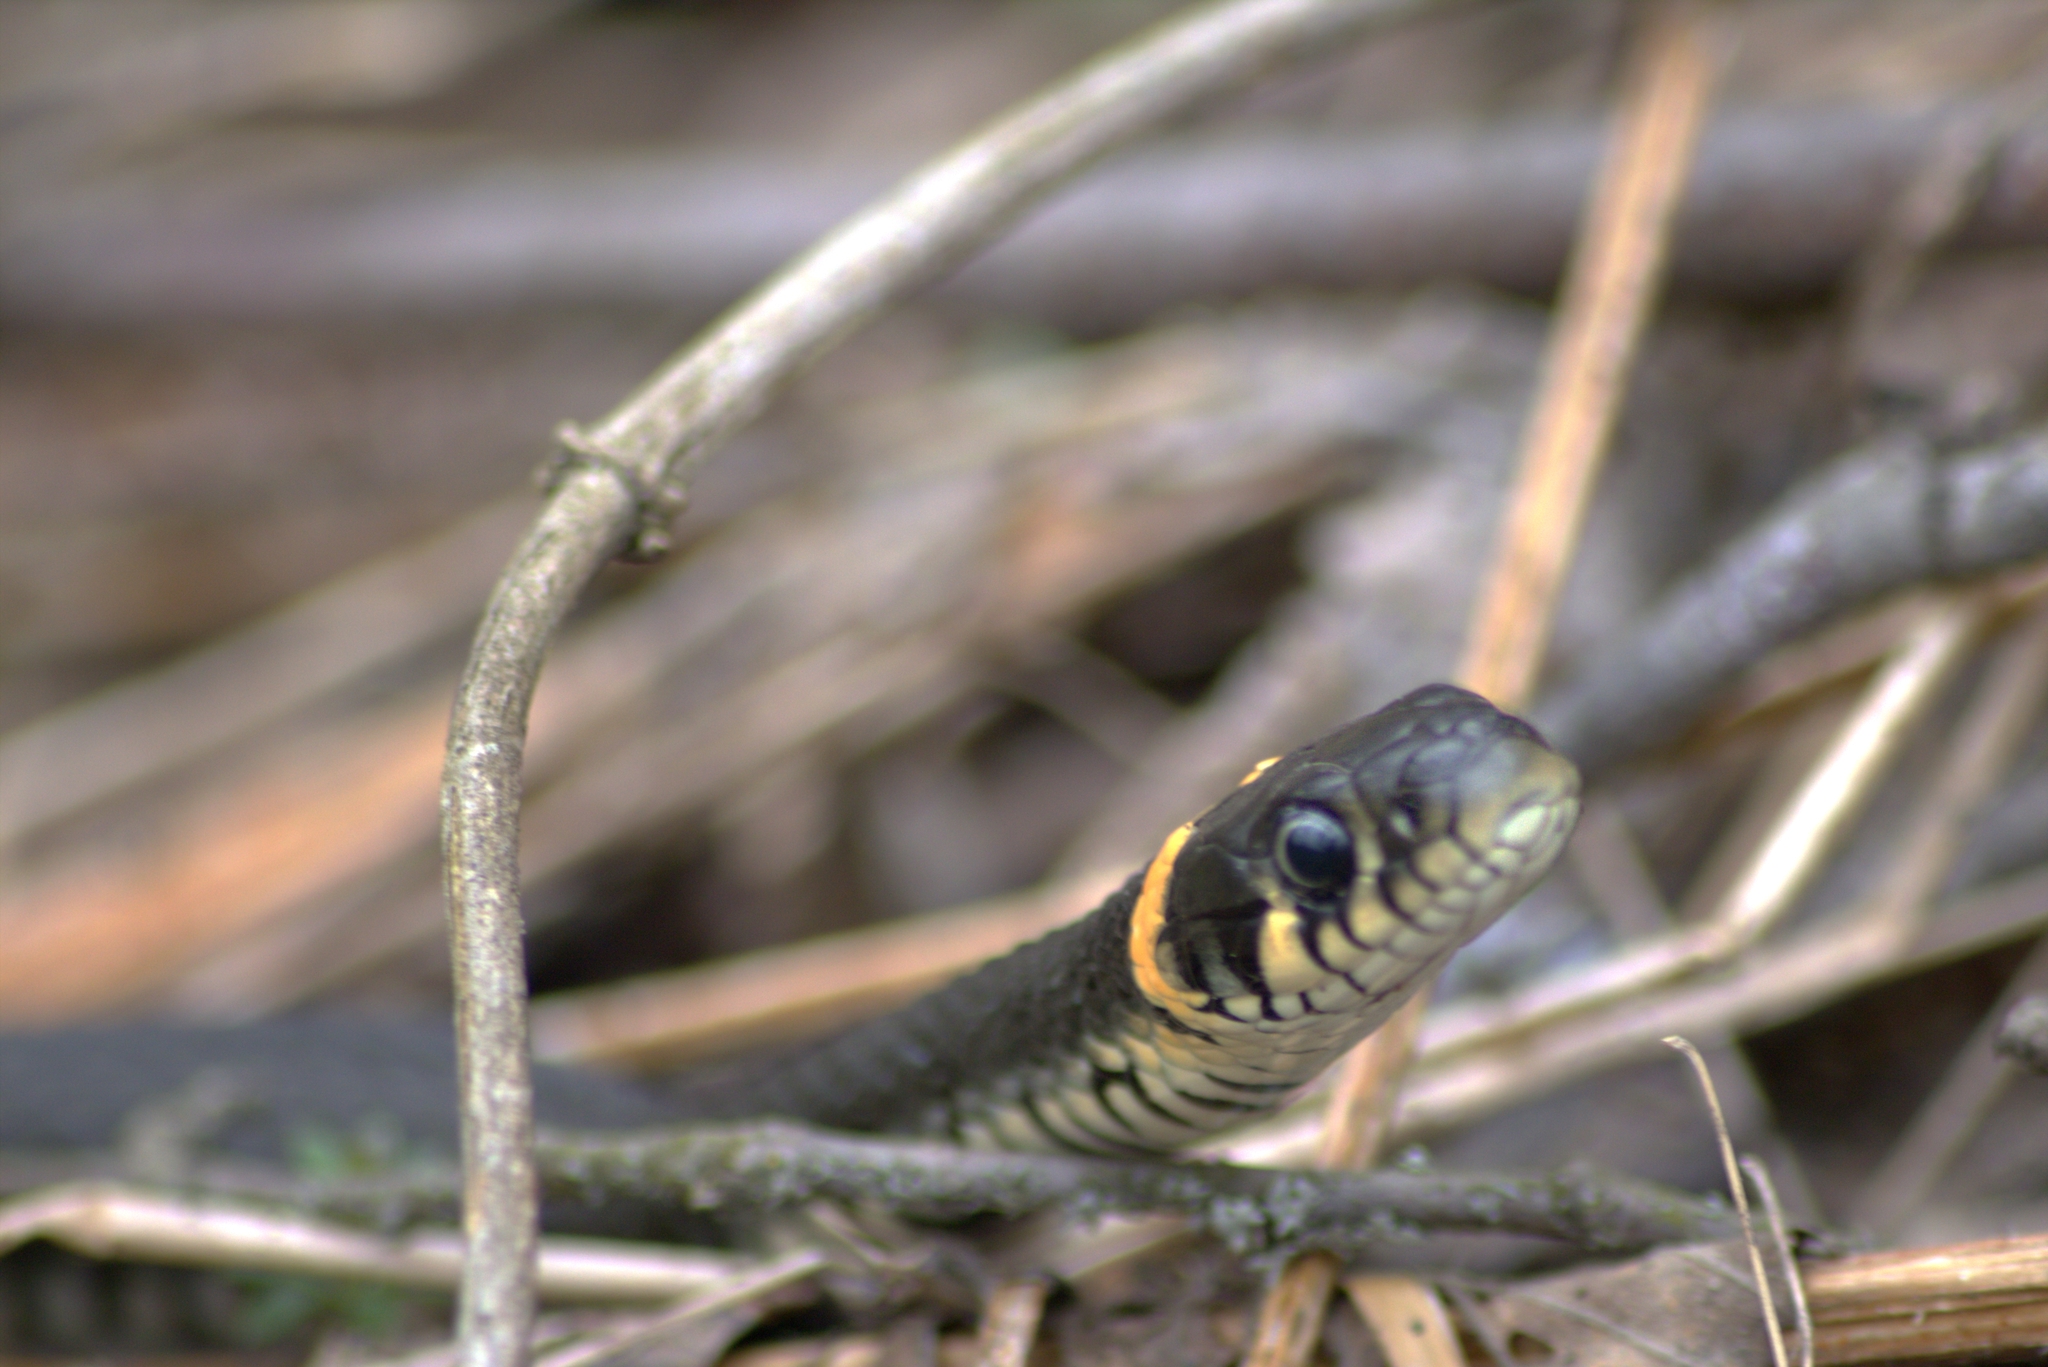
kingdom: Animalia
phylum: Chordata
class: Squamata
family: Colubridae
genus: Natrix
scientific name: Natrix natrix
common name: Grass snake
